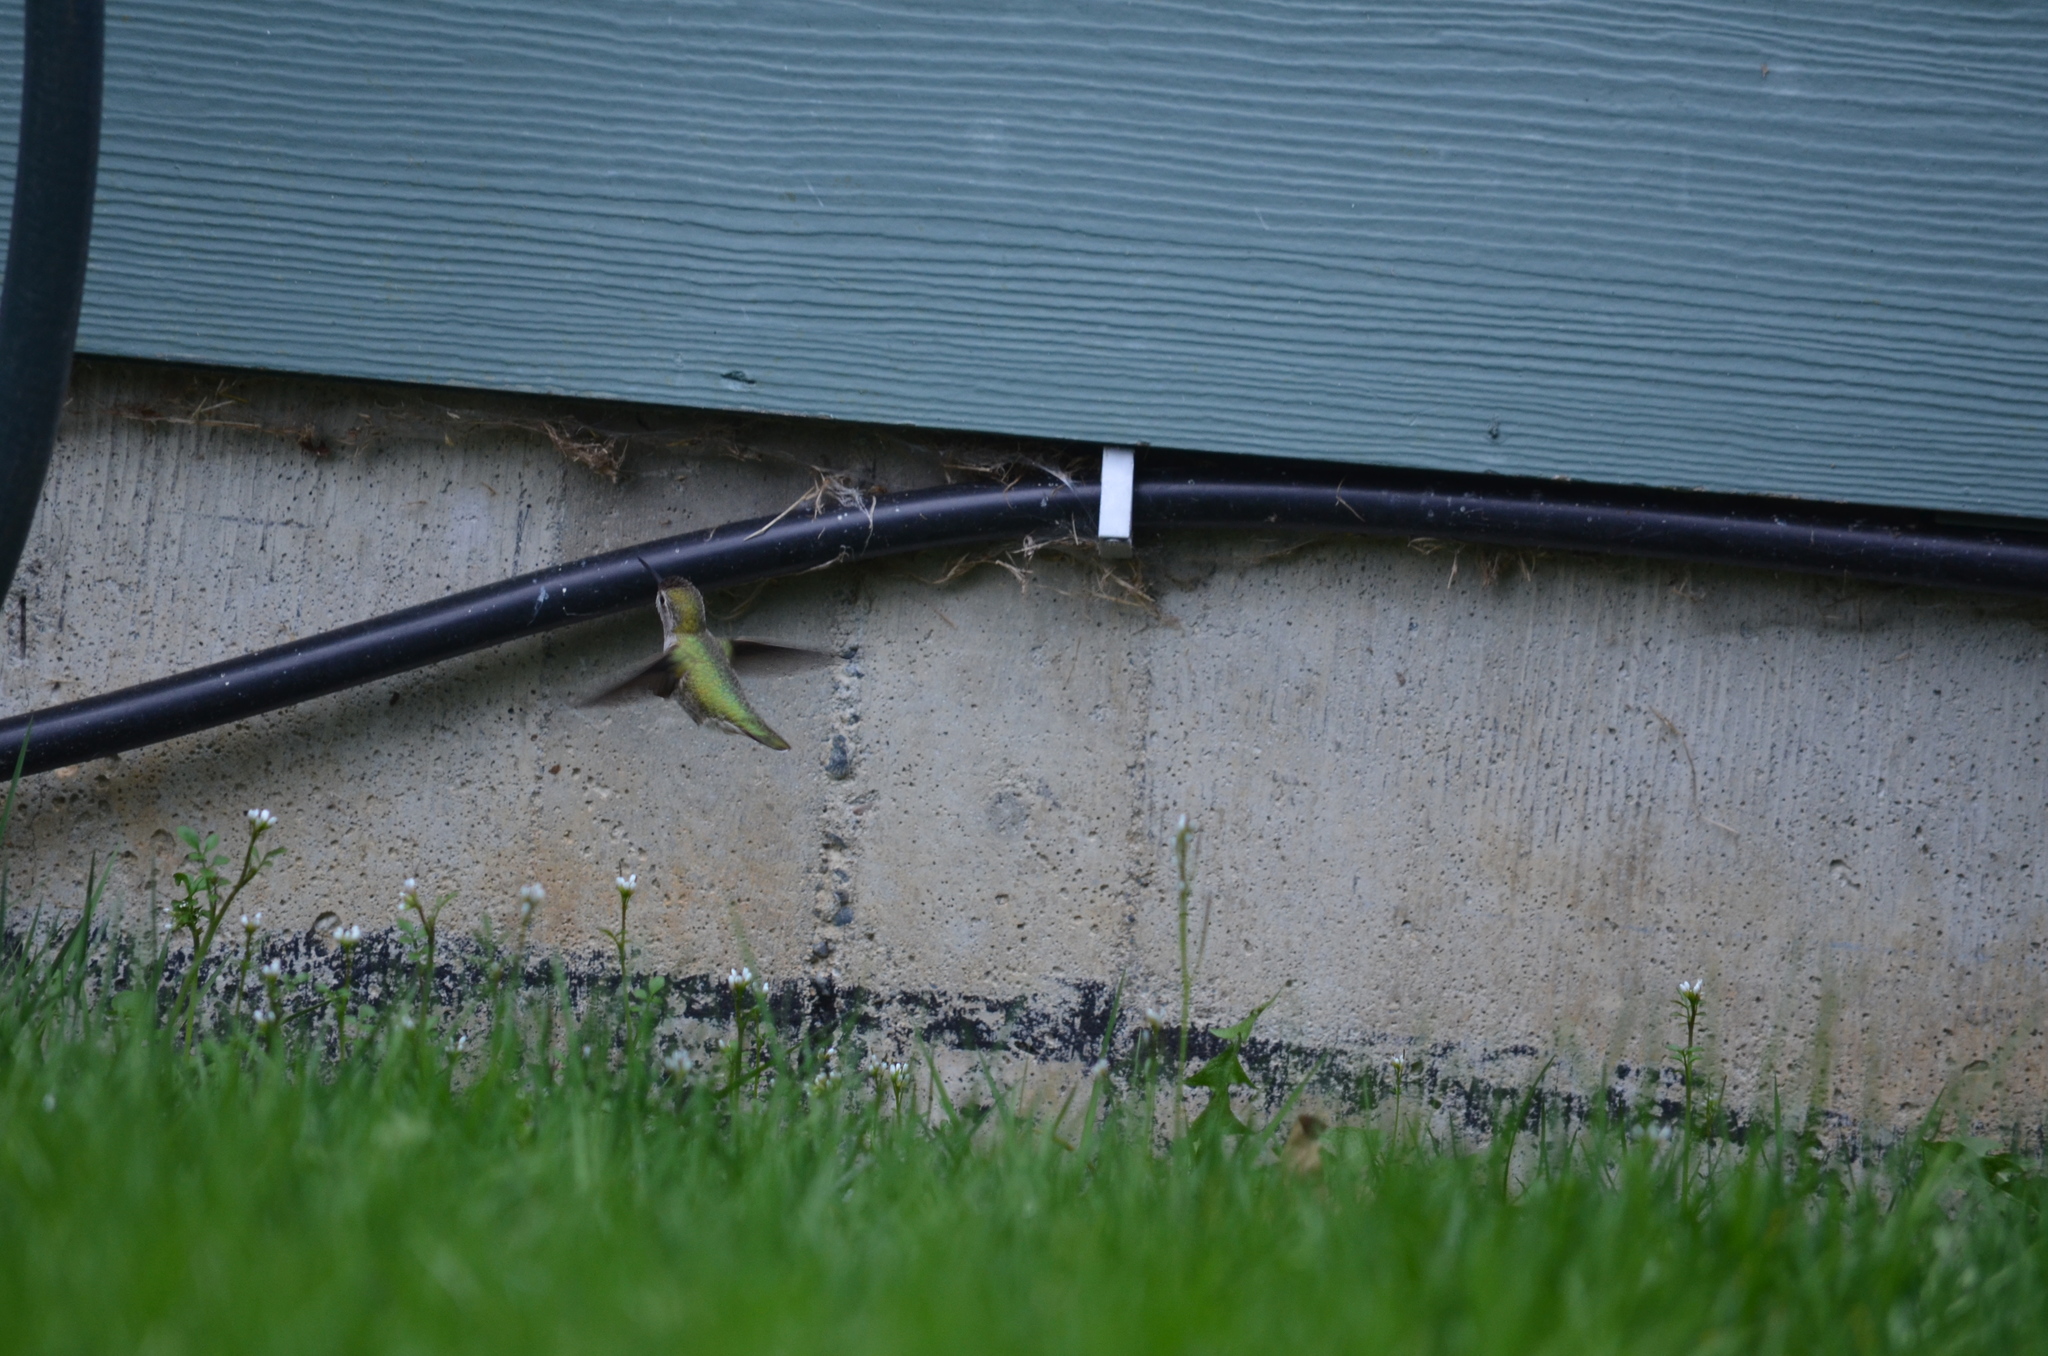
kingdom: Animalia
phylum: Chordata
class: Aves
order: Apodiformes
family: Trochilidae
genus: Calypte
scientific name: Calypte anna
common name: Anna's hummingbird
